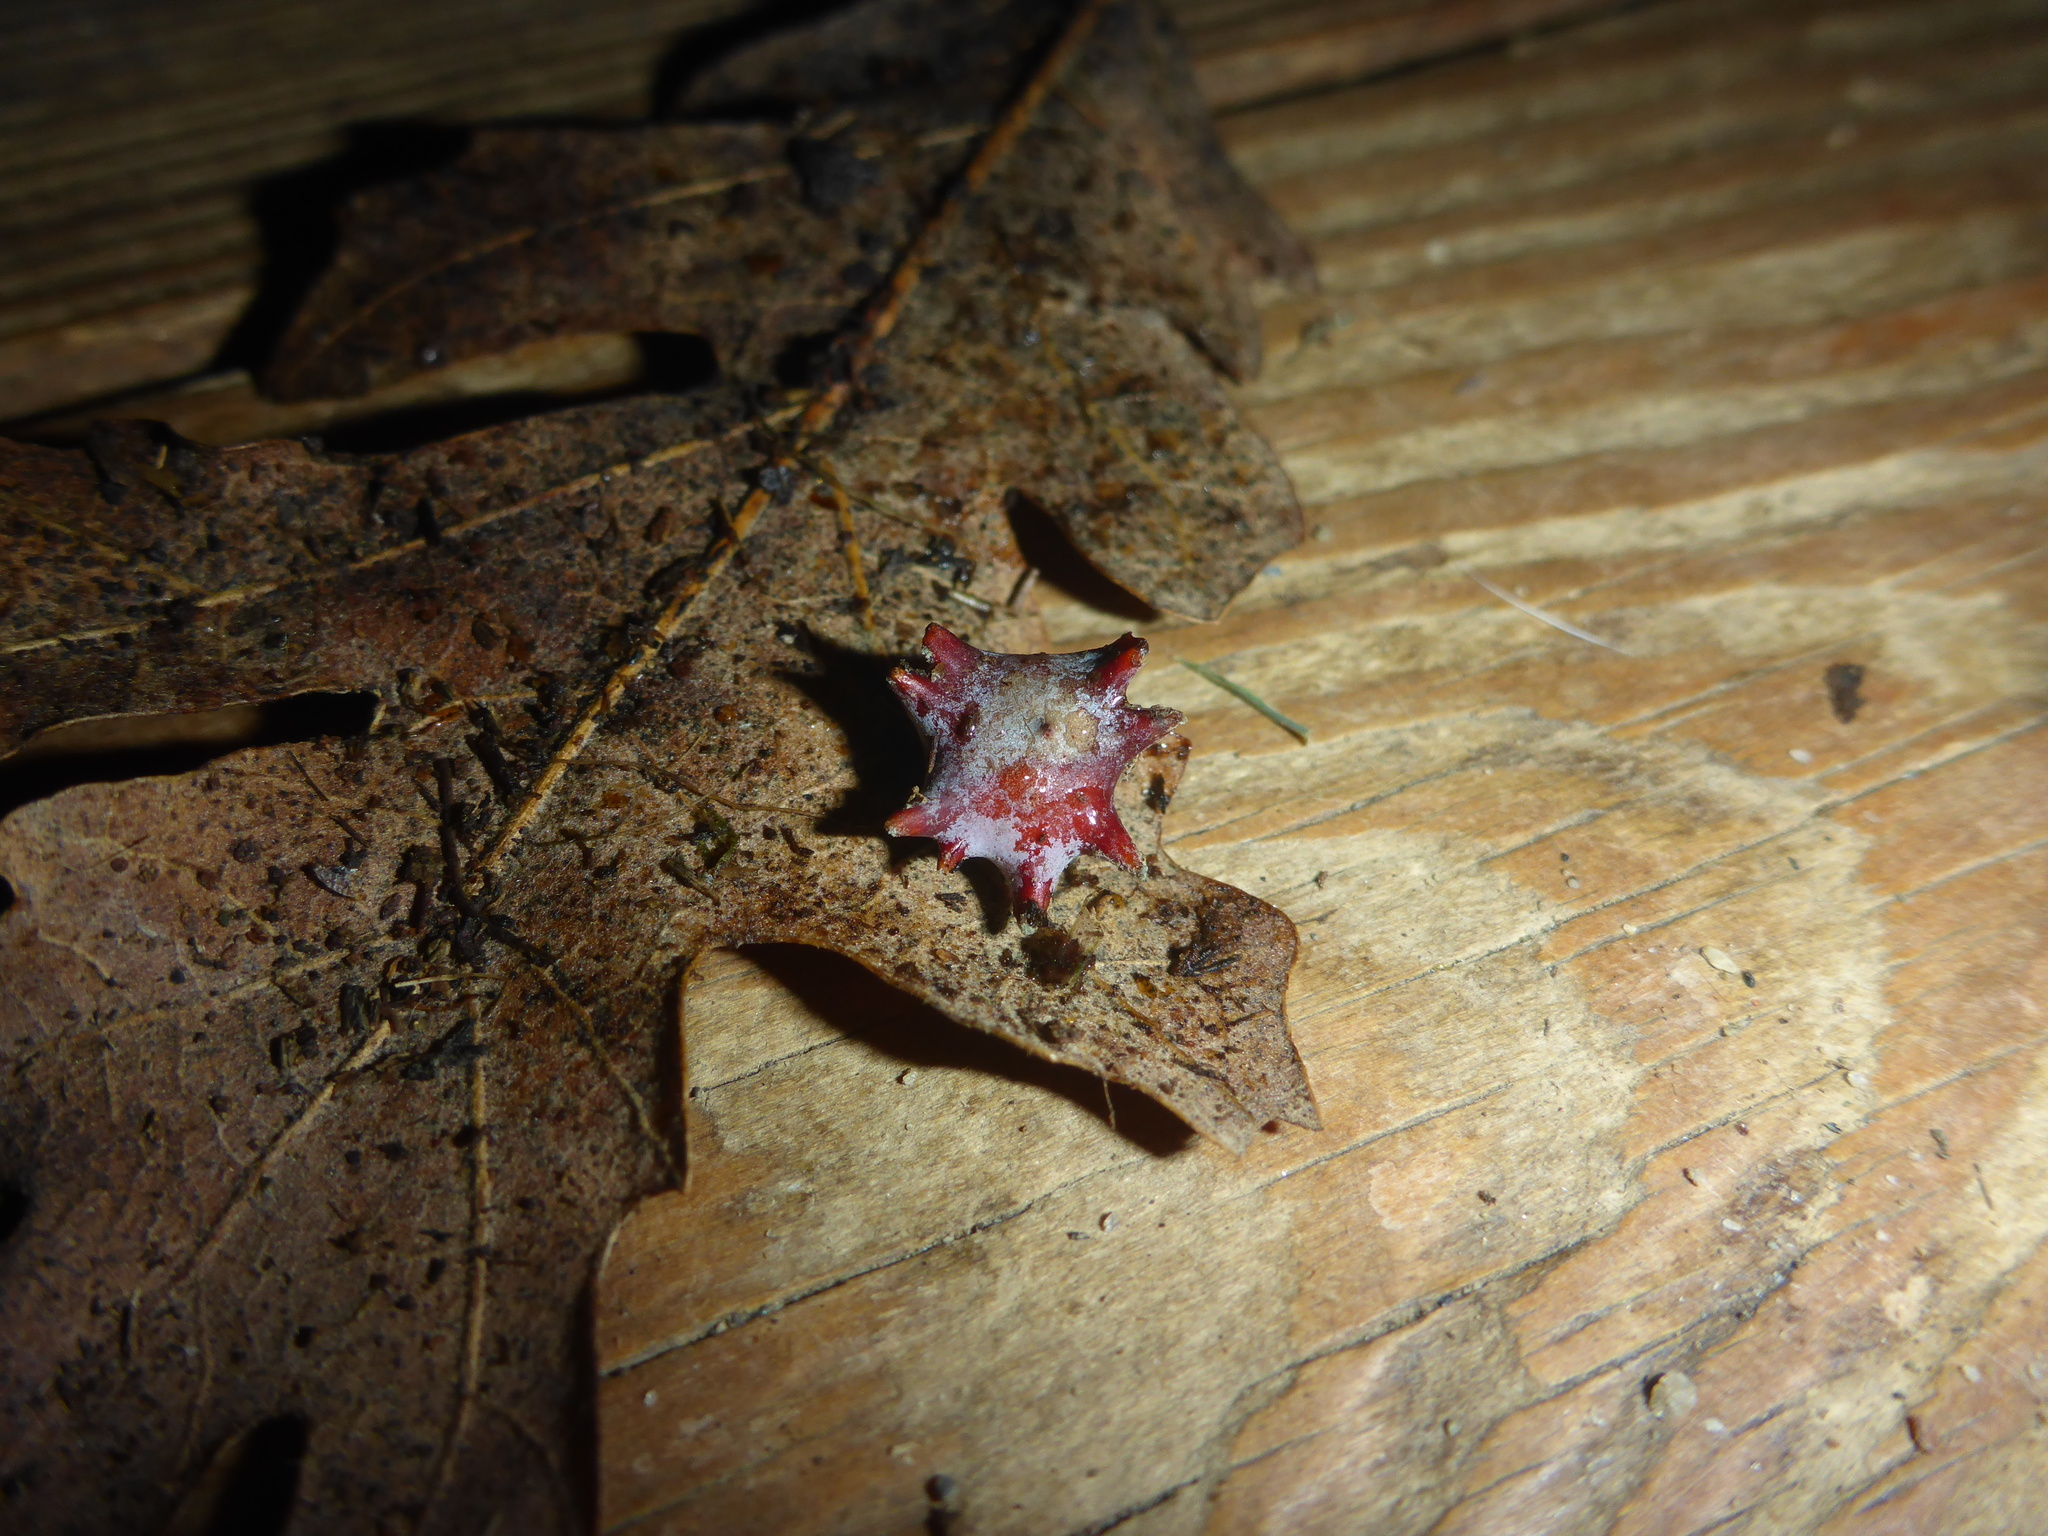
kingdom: Animalia
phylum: Arthropoda
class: Insecta
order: Hymenoptera
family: Cynipidae
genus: Cynips
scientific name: Cynips douglasi
